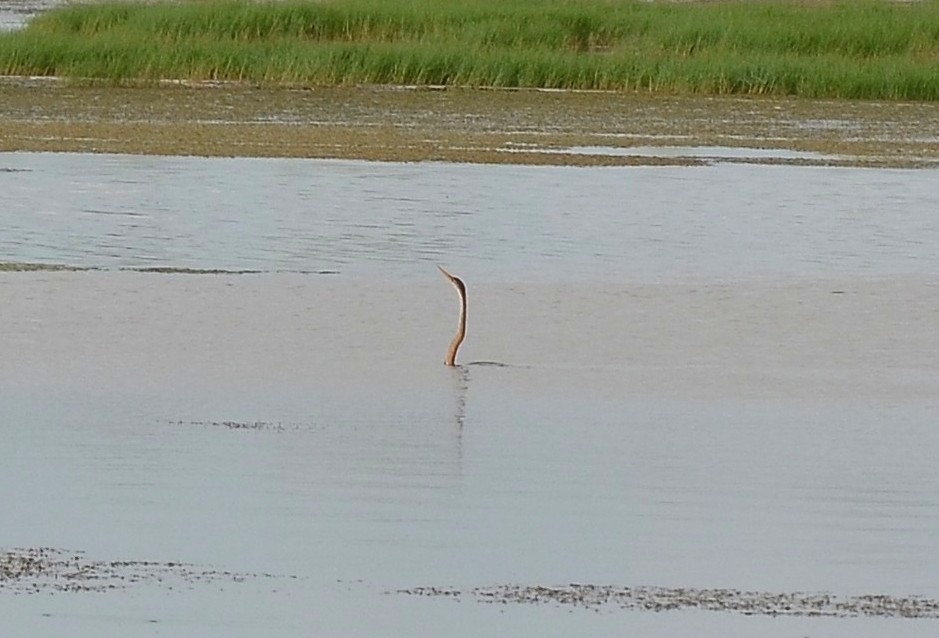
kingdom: Animalia
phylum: Chordata
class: Aves
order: Suliformes
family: Anhingidae
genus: Anhinga
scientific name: Anhinga melanogaster
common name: Oriental darter
